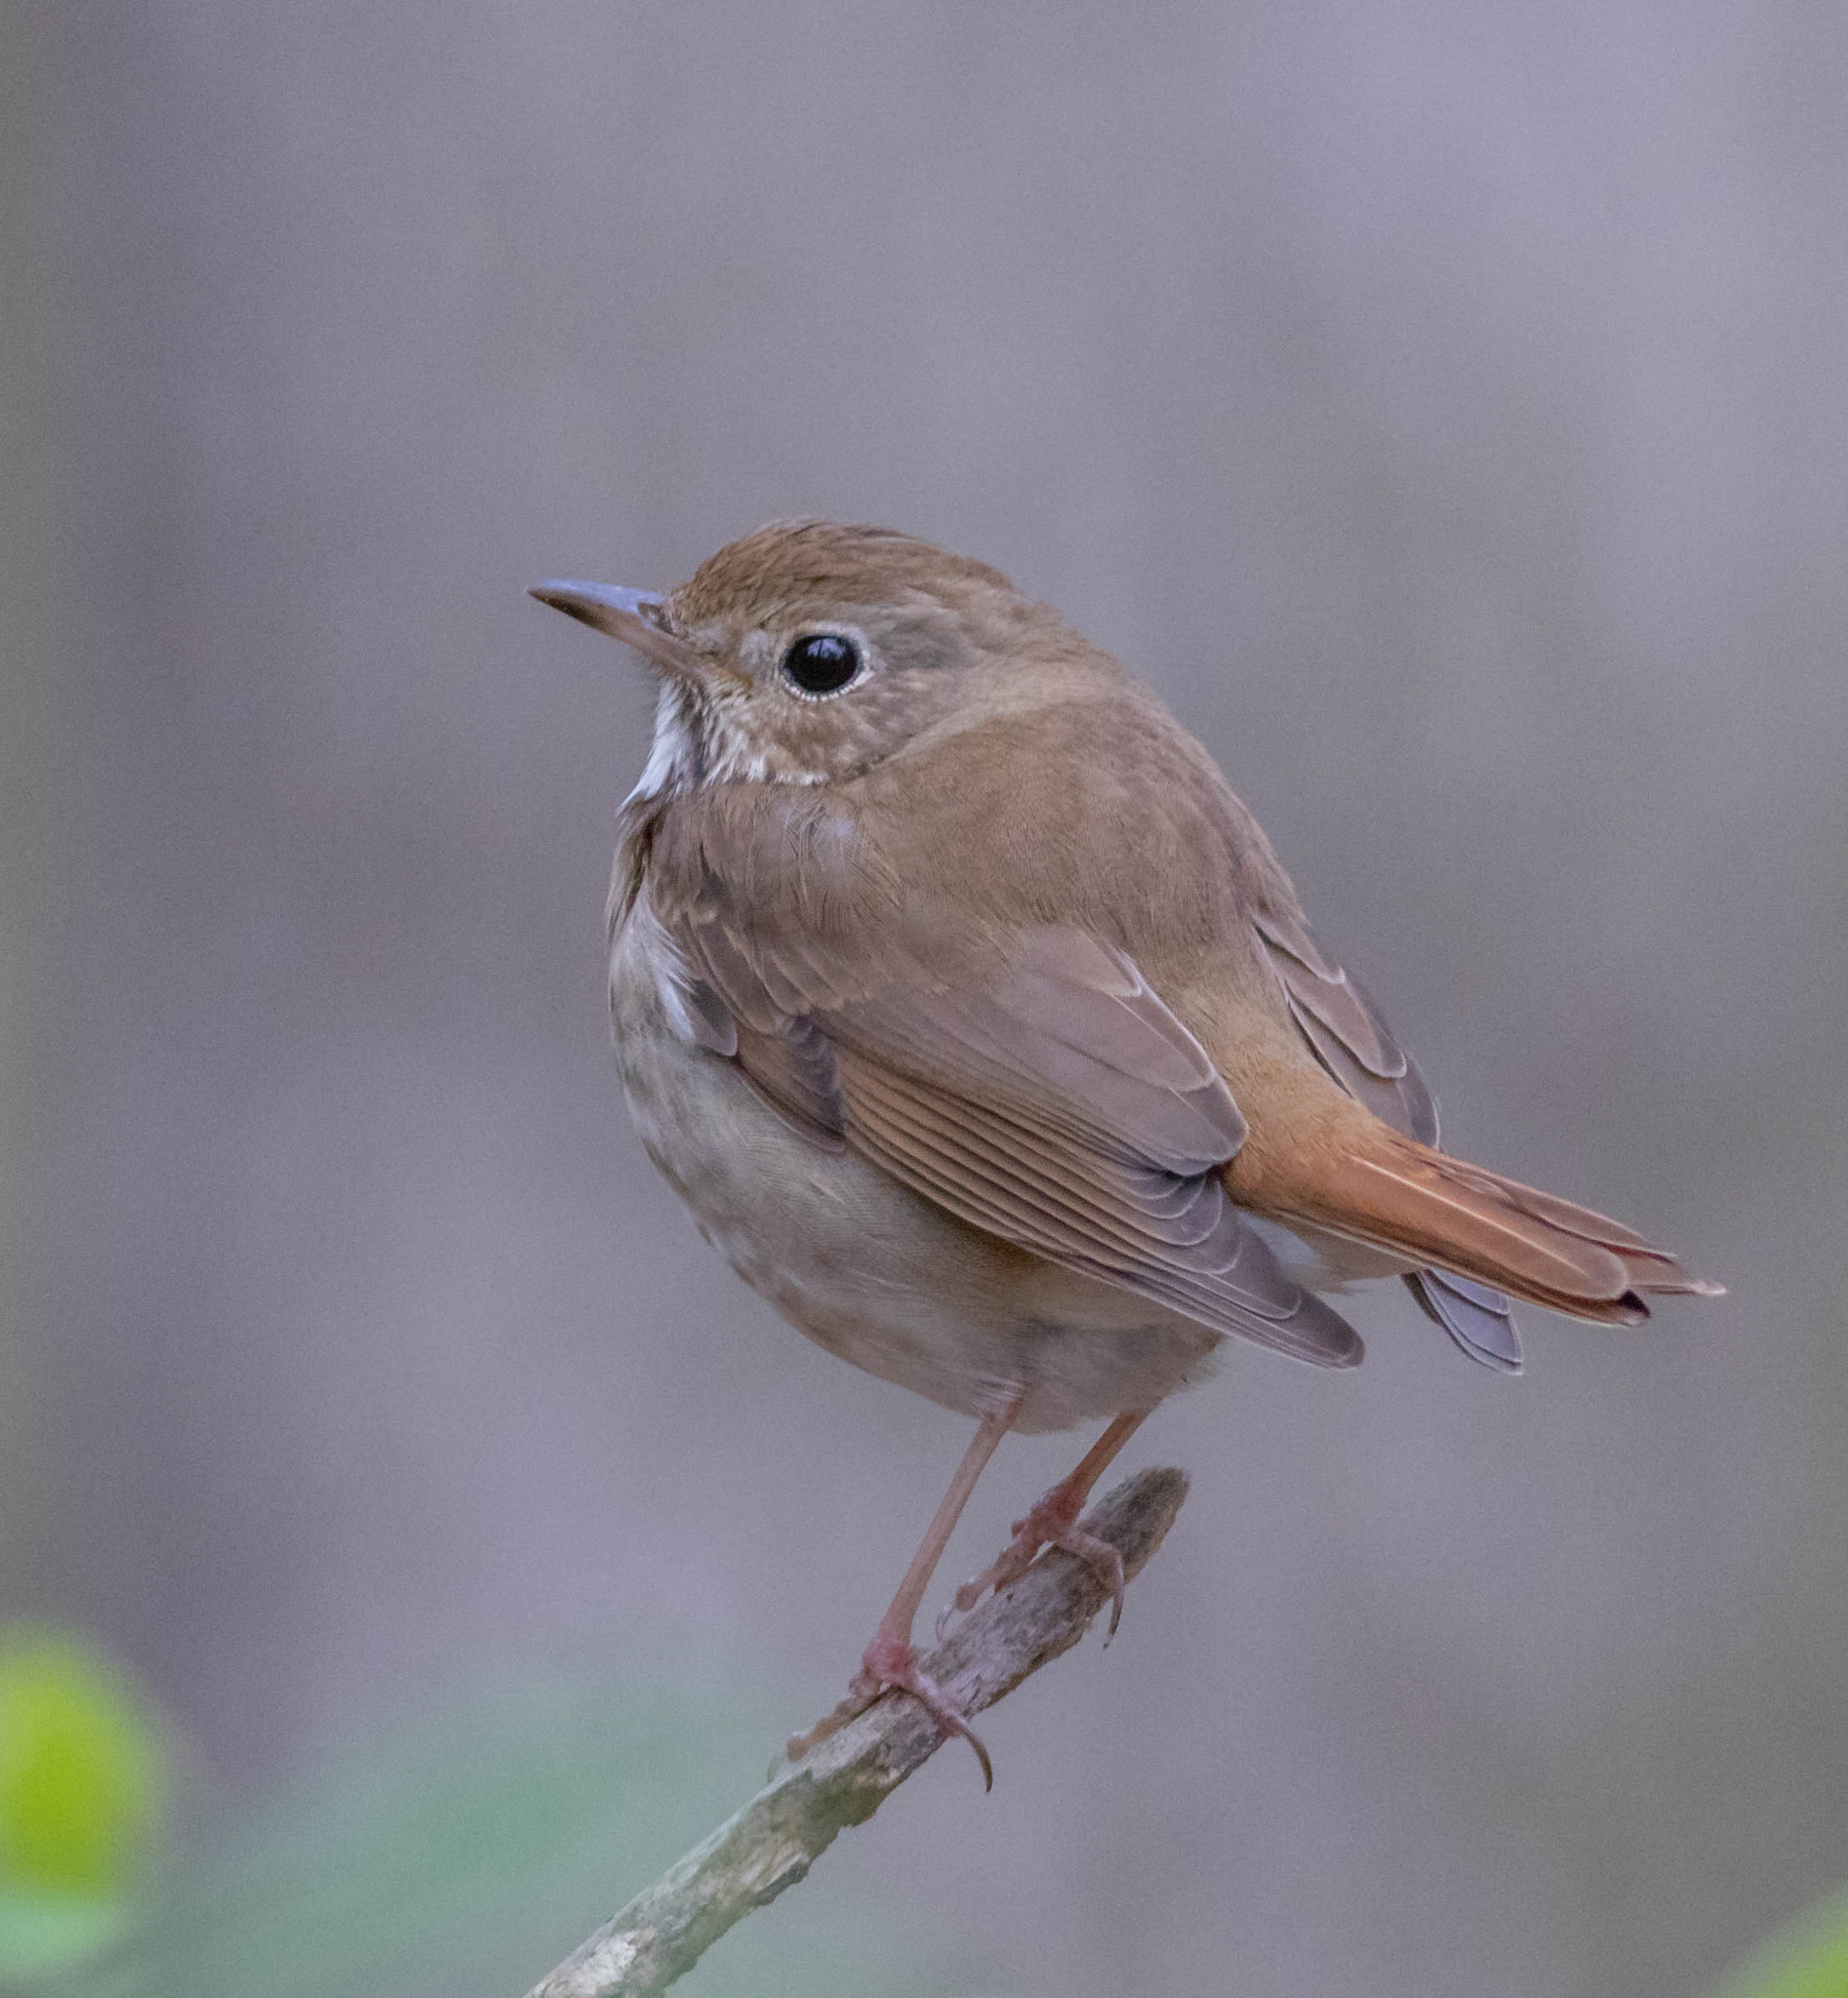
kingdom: Animalia
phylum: Chordata
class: Aves
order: Passeriformes
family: Turdidae
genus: Catharus
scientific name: Catharus guttatus
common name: Hermit thrush
